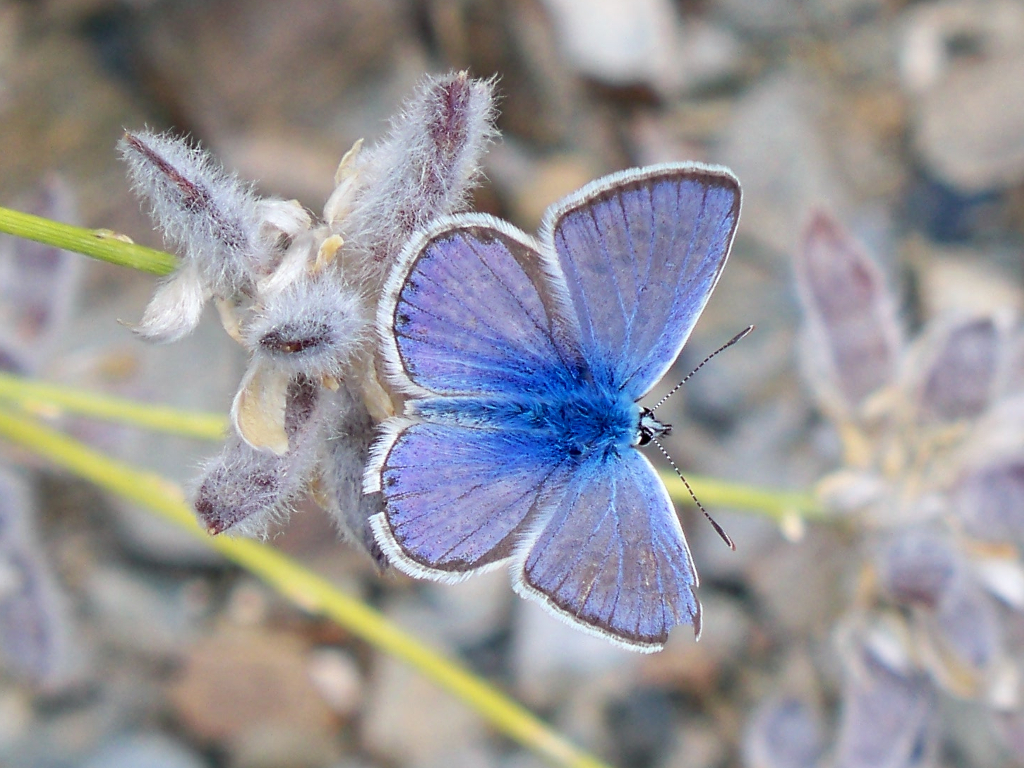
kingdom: Animalia
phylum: Arthropoda
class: Insecta
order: Lepidoptera
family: Lycaenidae
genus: Polyommatus
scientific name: Polyommatus celina
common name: Austaut's blue
